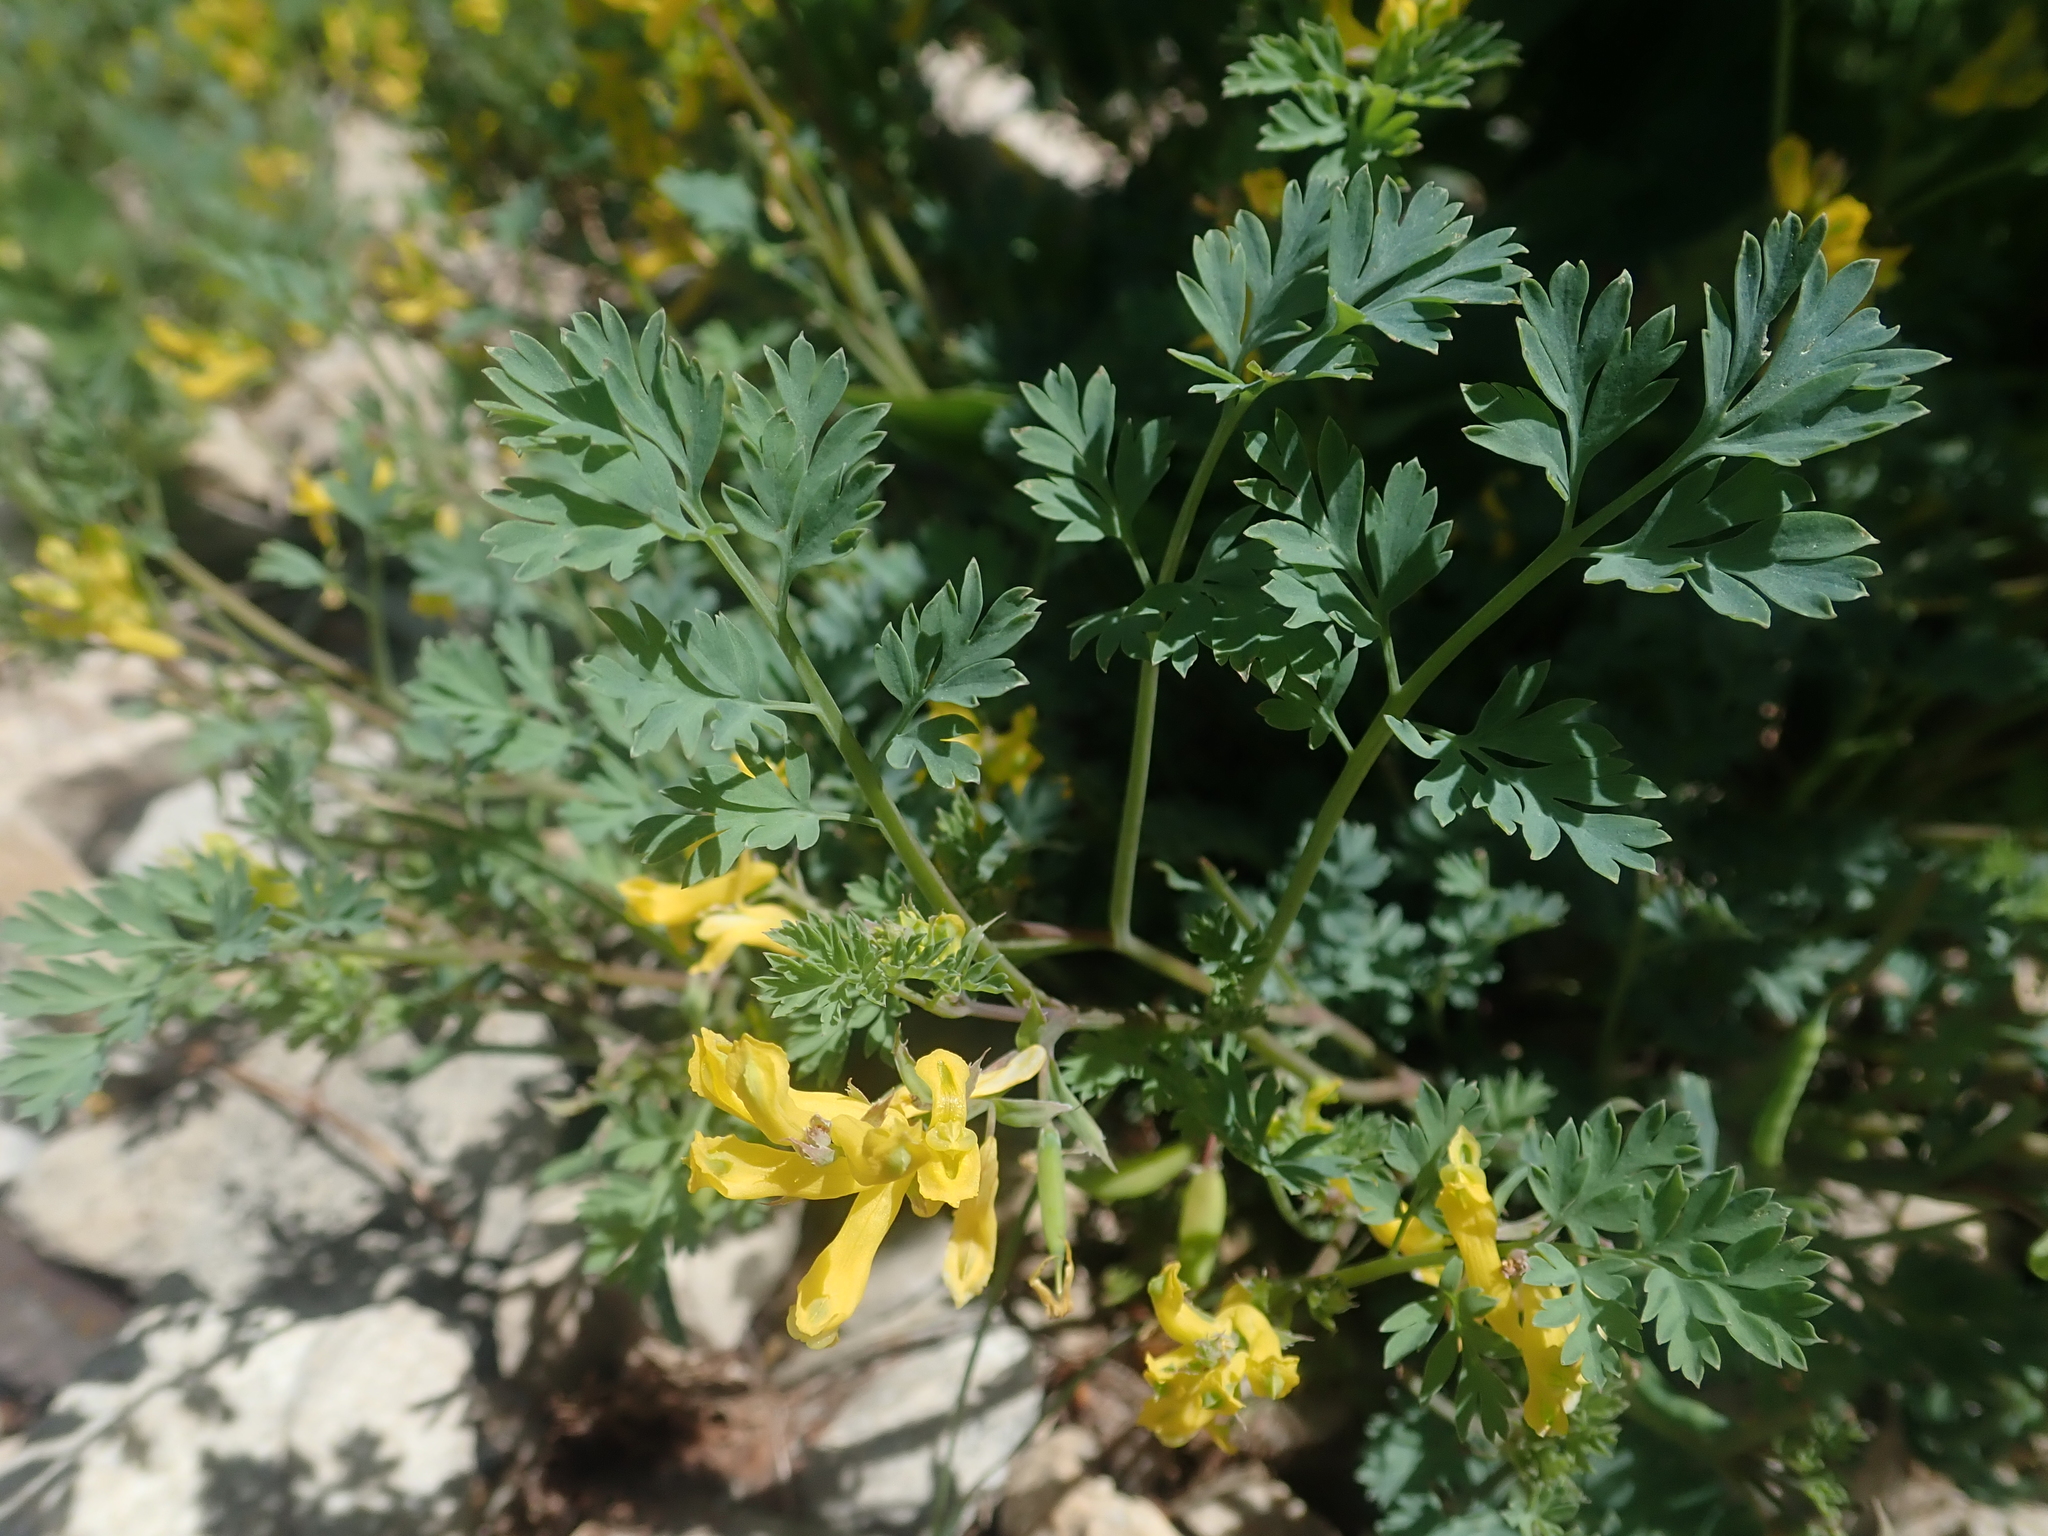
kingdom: Plantae
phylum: Tracheophyta
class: Magnoliopsida
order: Ranunculales
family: Papaveraceae
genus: Corydalis
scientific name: Corydalis aurea
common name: Golden corydalis
